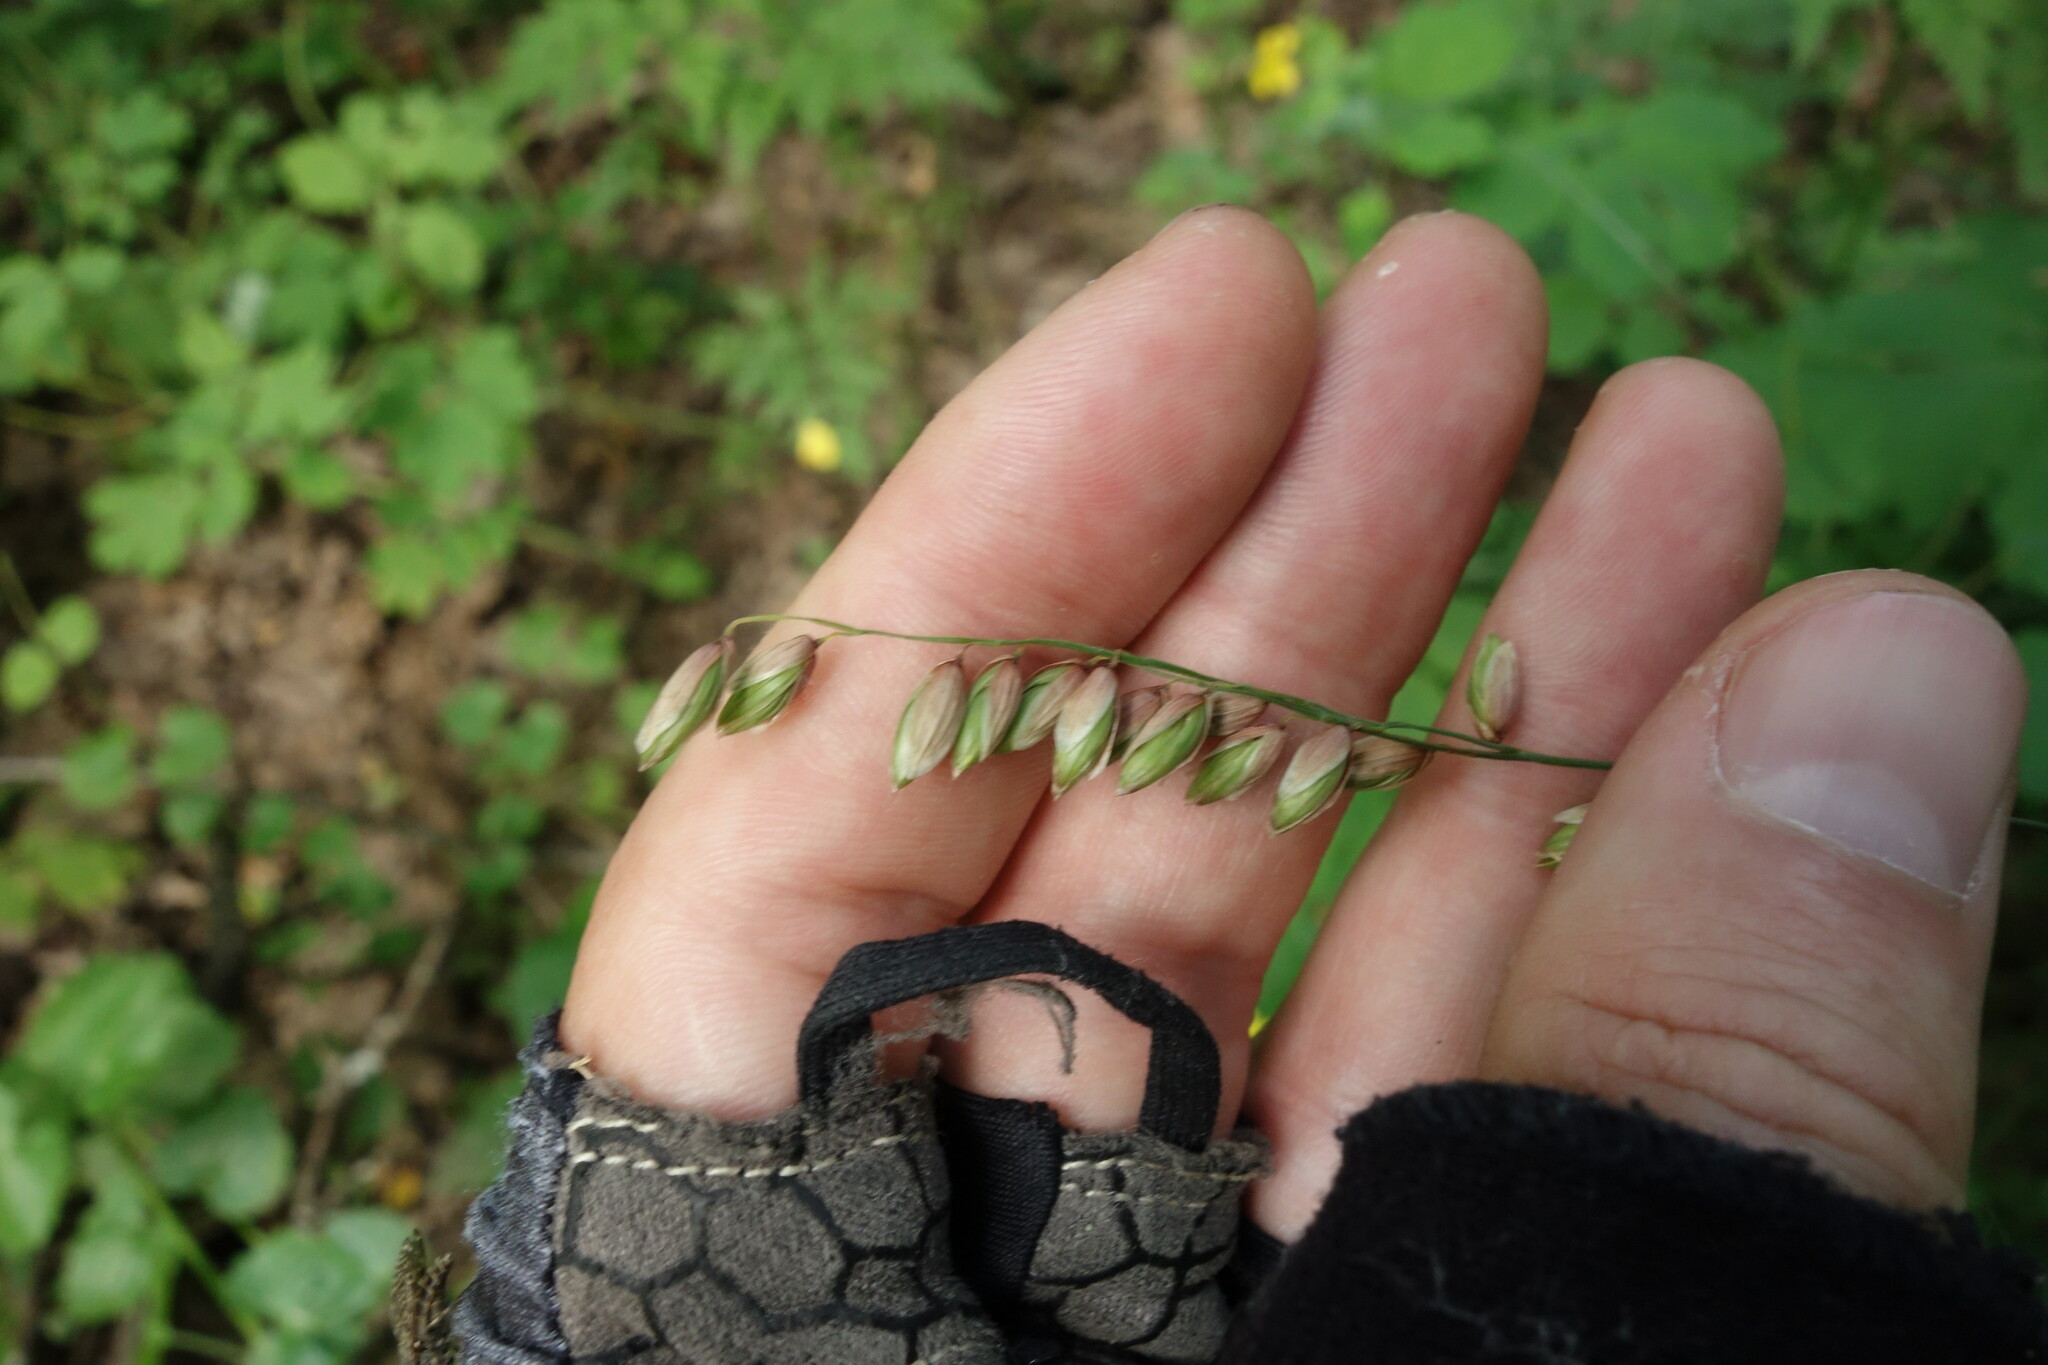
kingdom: Plantae
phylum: Tracheophyta
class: Liliopsida
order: Poales
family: Poaceae
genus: Melica
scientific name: Melica nutans
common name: Mountain melick
